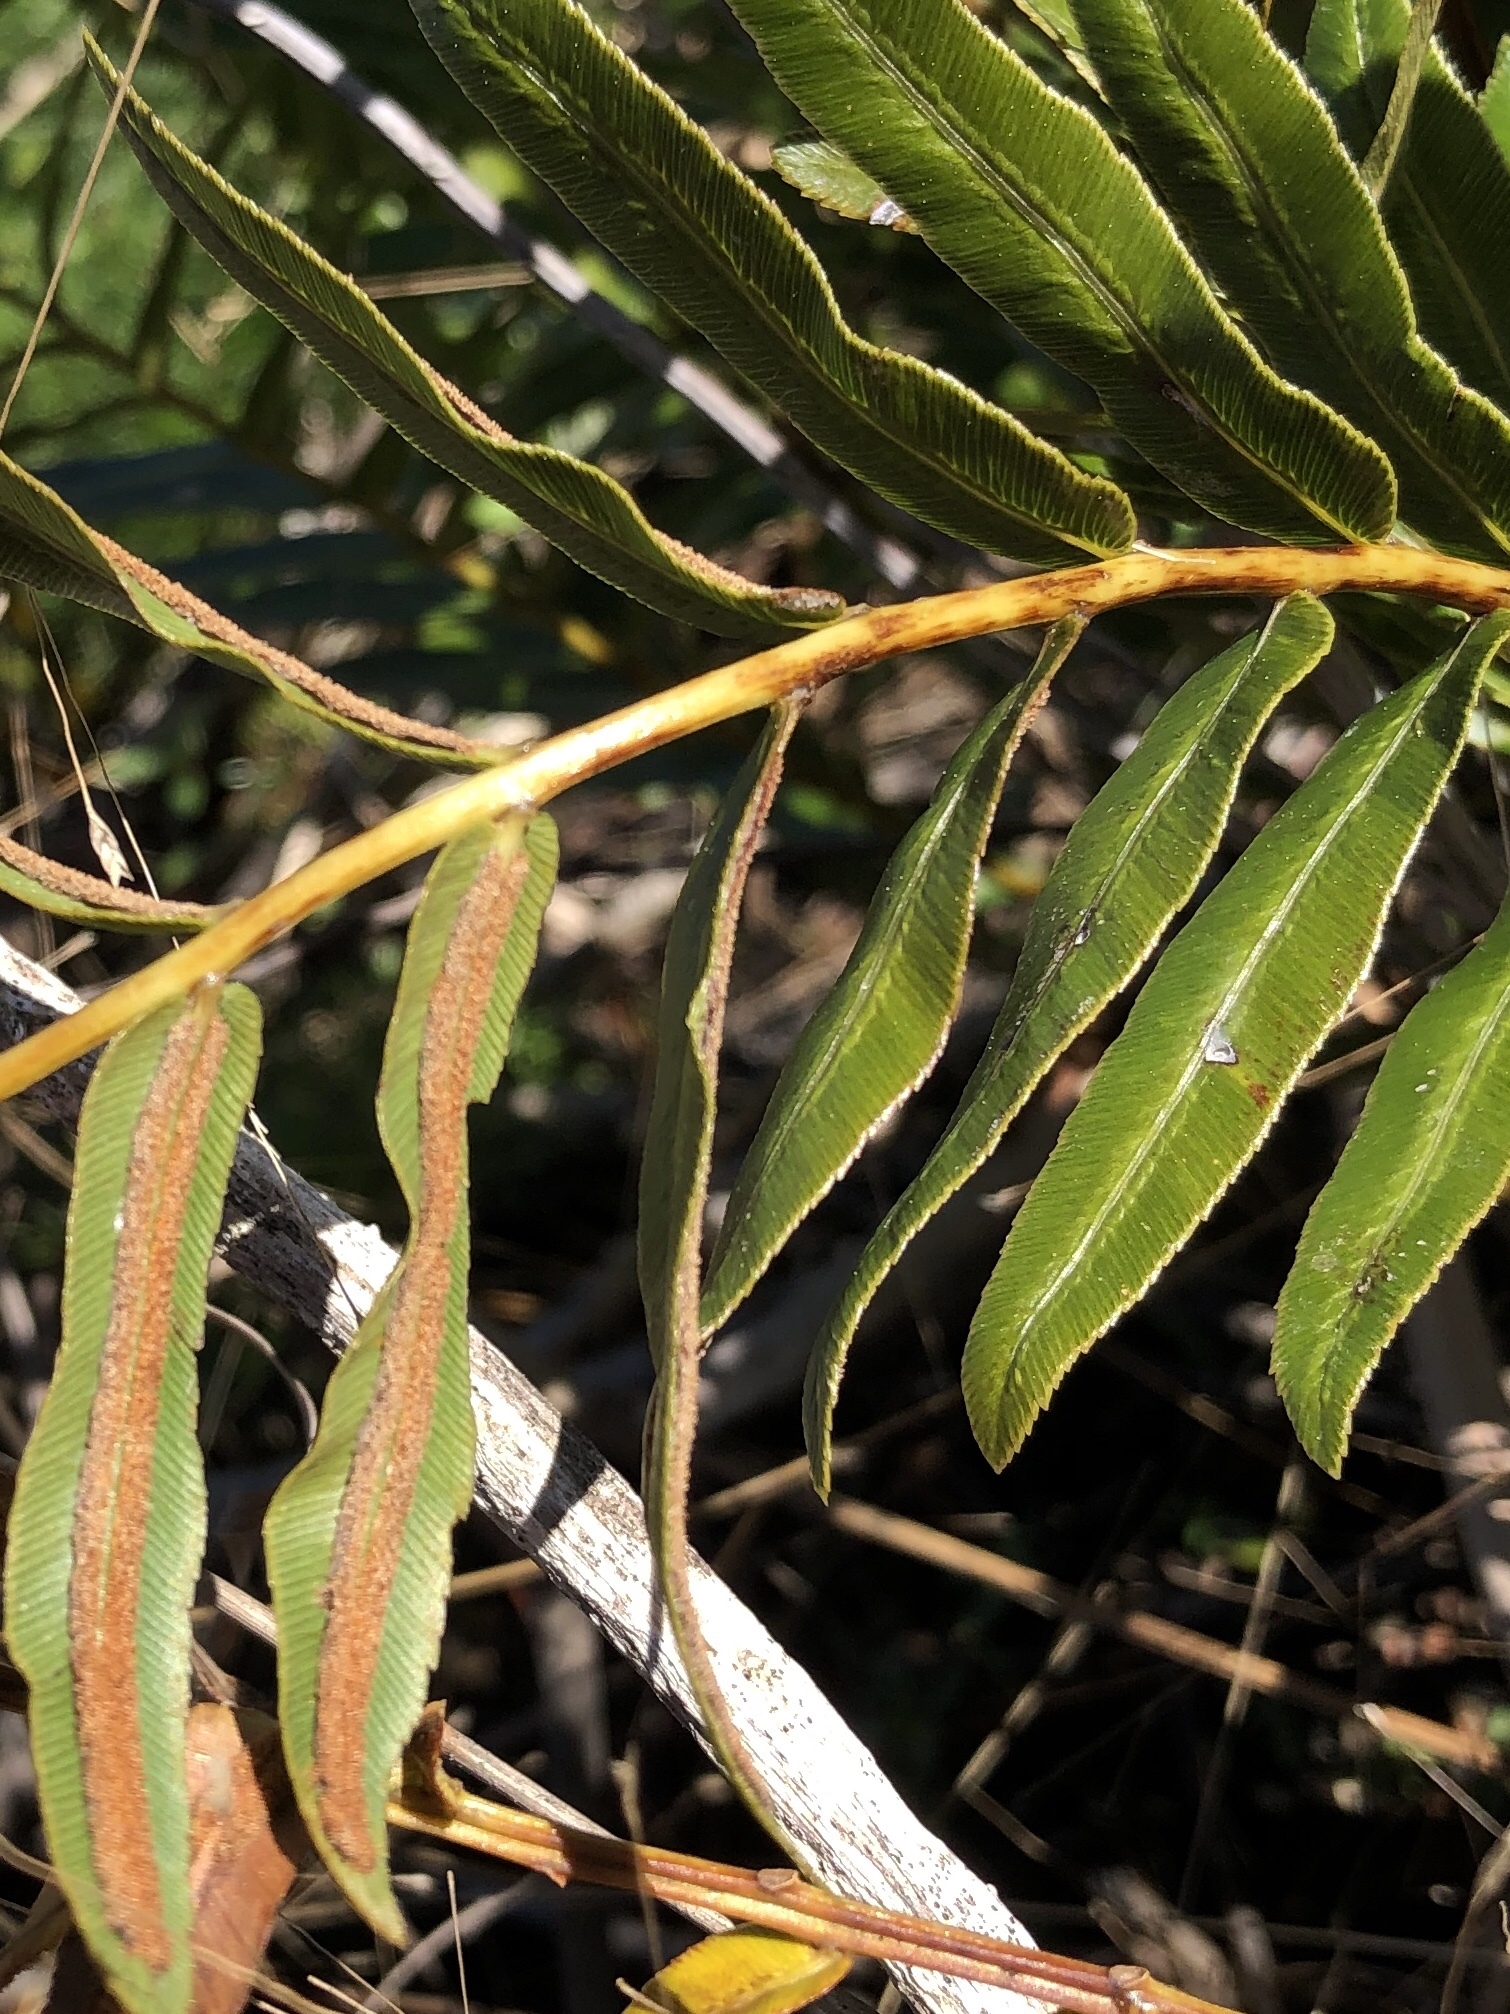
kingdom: Plantae
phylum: Tracheophyta
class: Polypodiopsida
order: Polypodiales
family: Blechnaceae
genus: Telmatoblechnum
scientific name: Telmatoblechnum serrulatum
